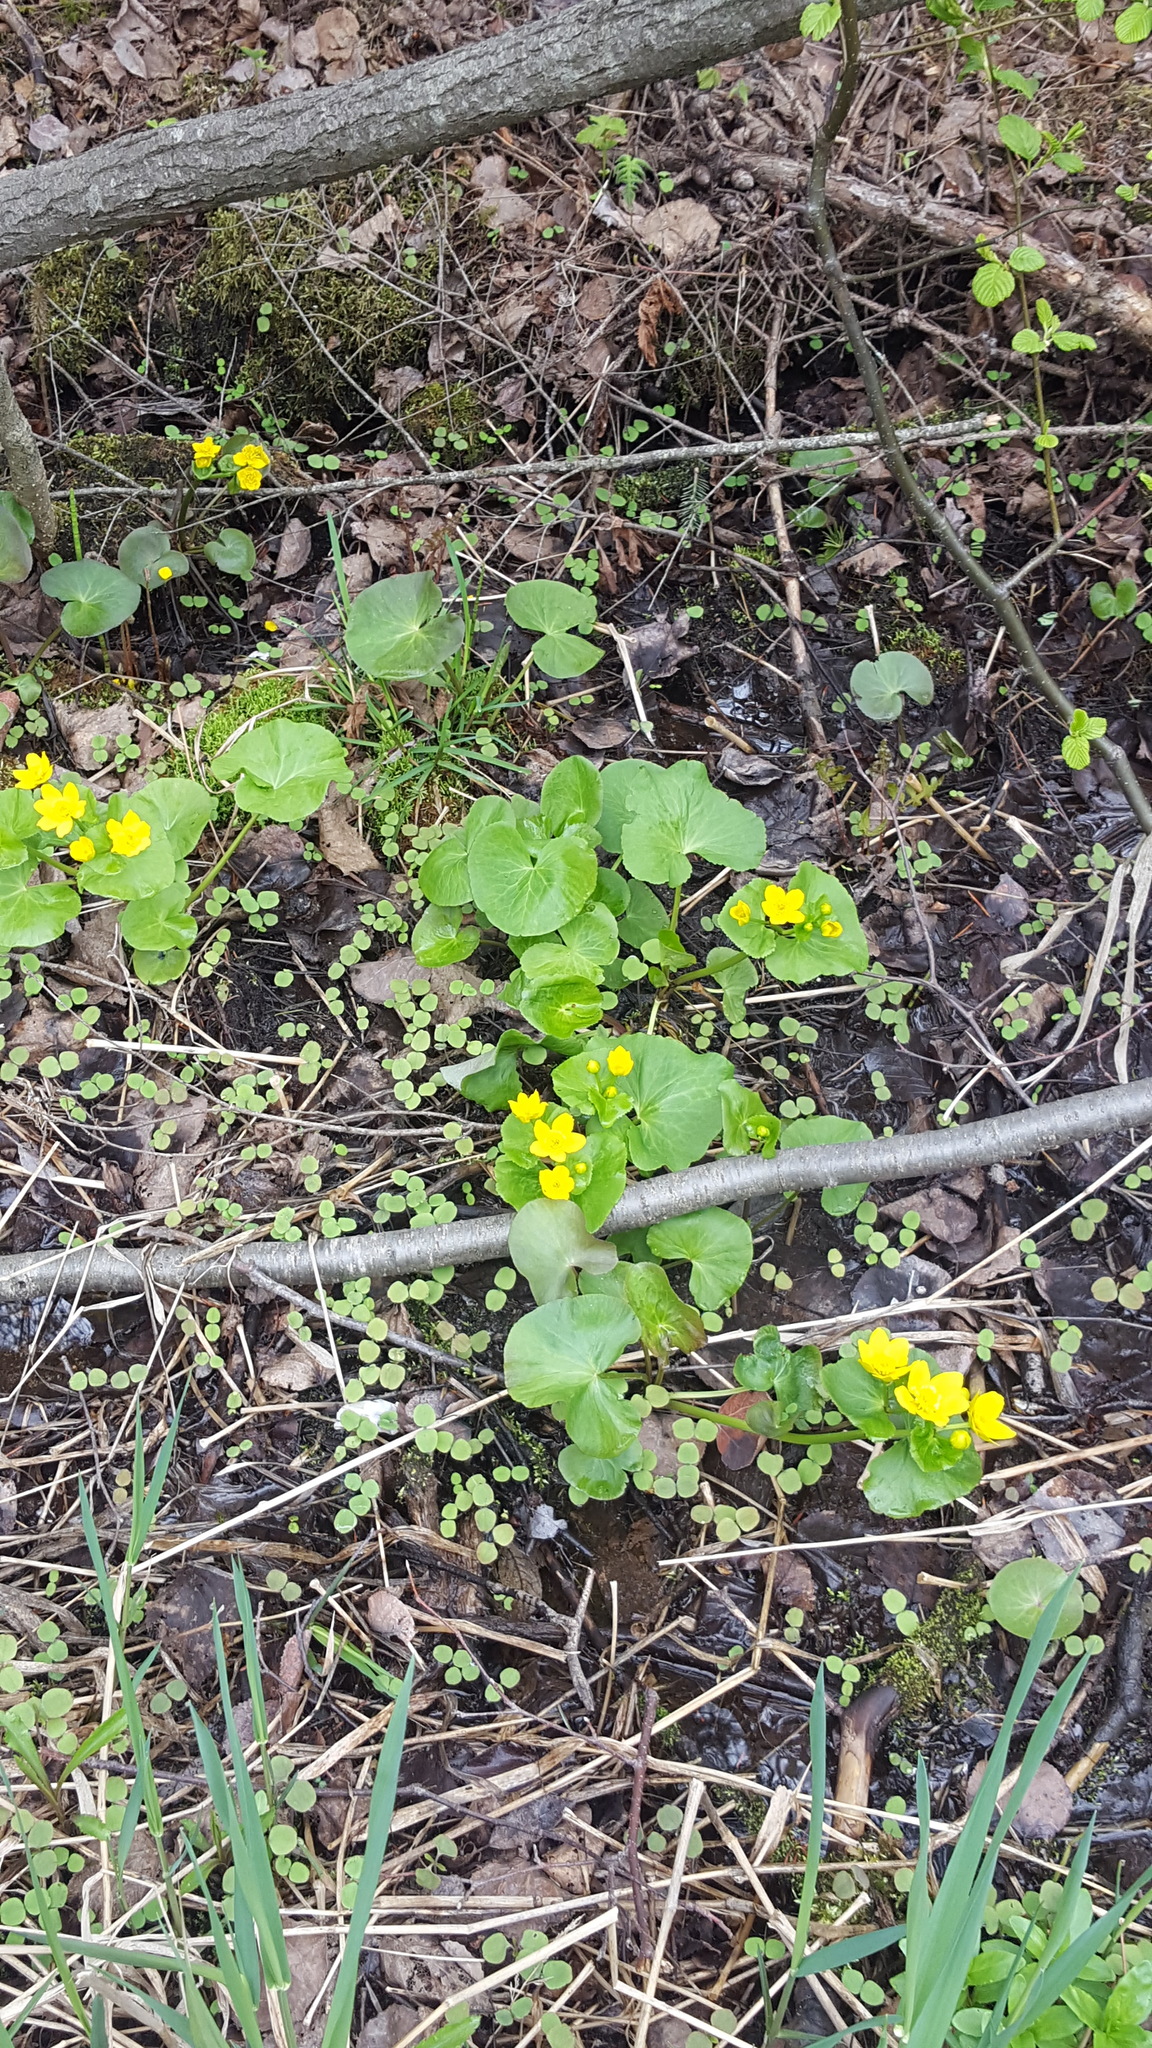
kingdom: Plantae
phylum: Tracheophyta
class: Magnoliopsida
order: Ranunculales
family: Ranunculaceae
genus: Caltha
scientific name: Caltha palustris
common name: Marsh marigold
